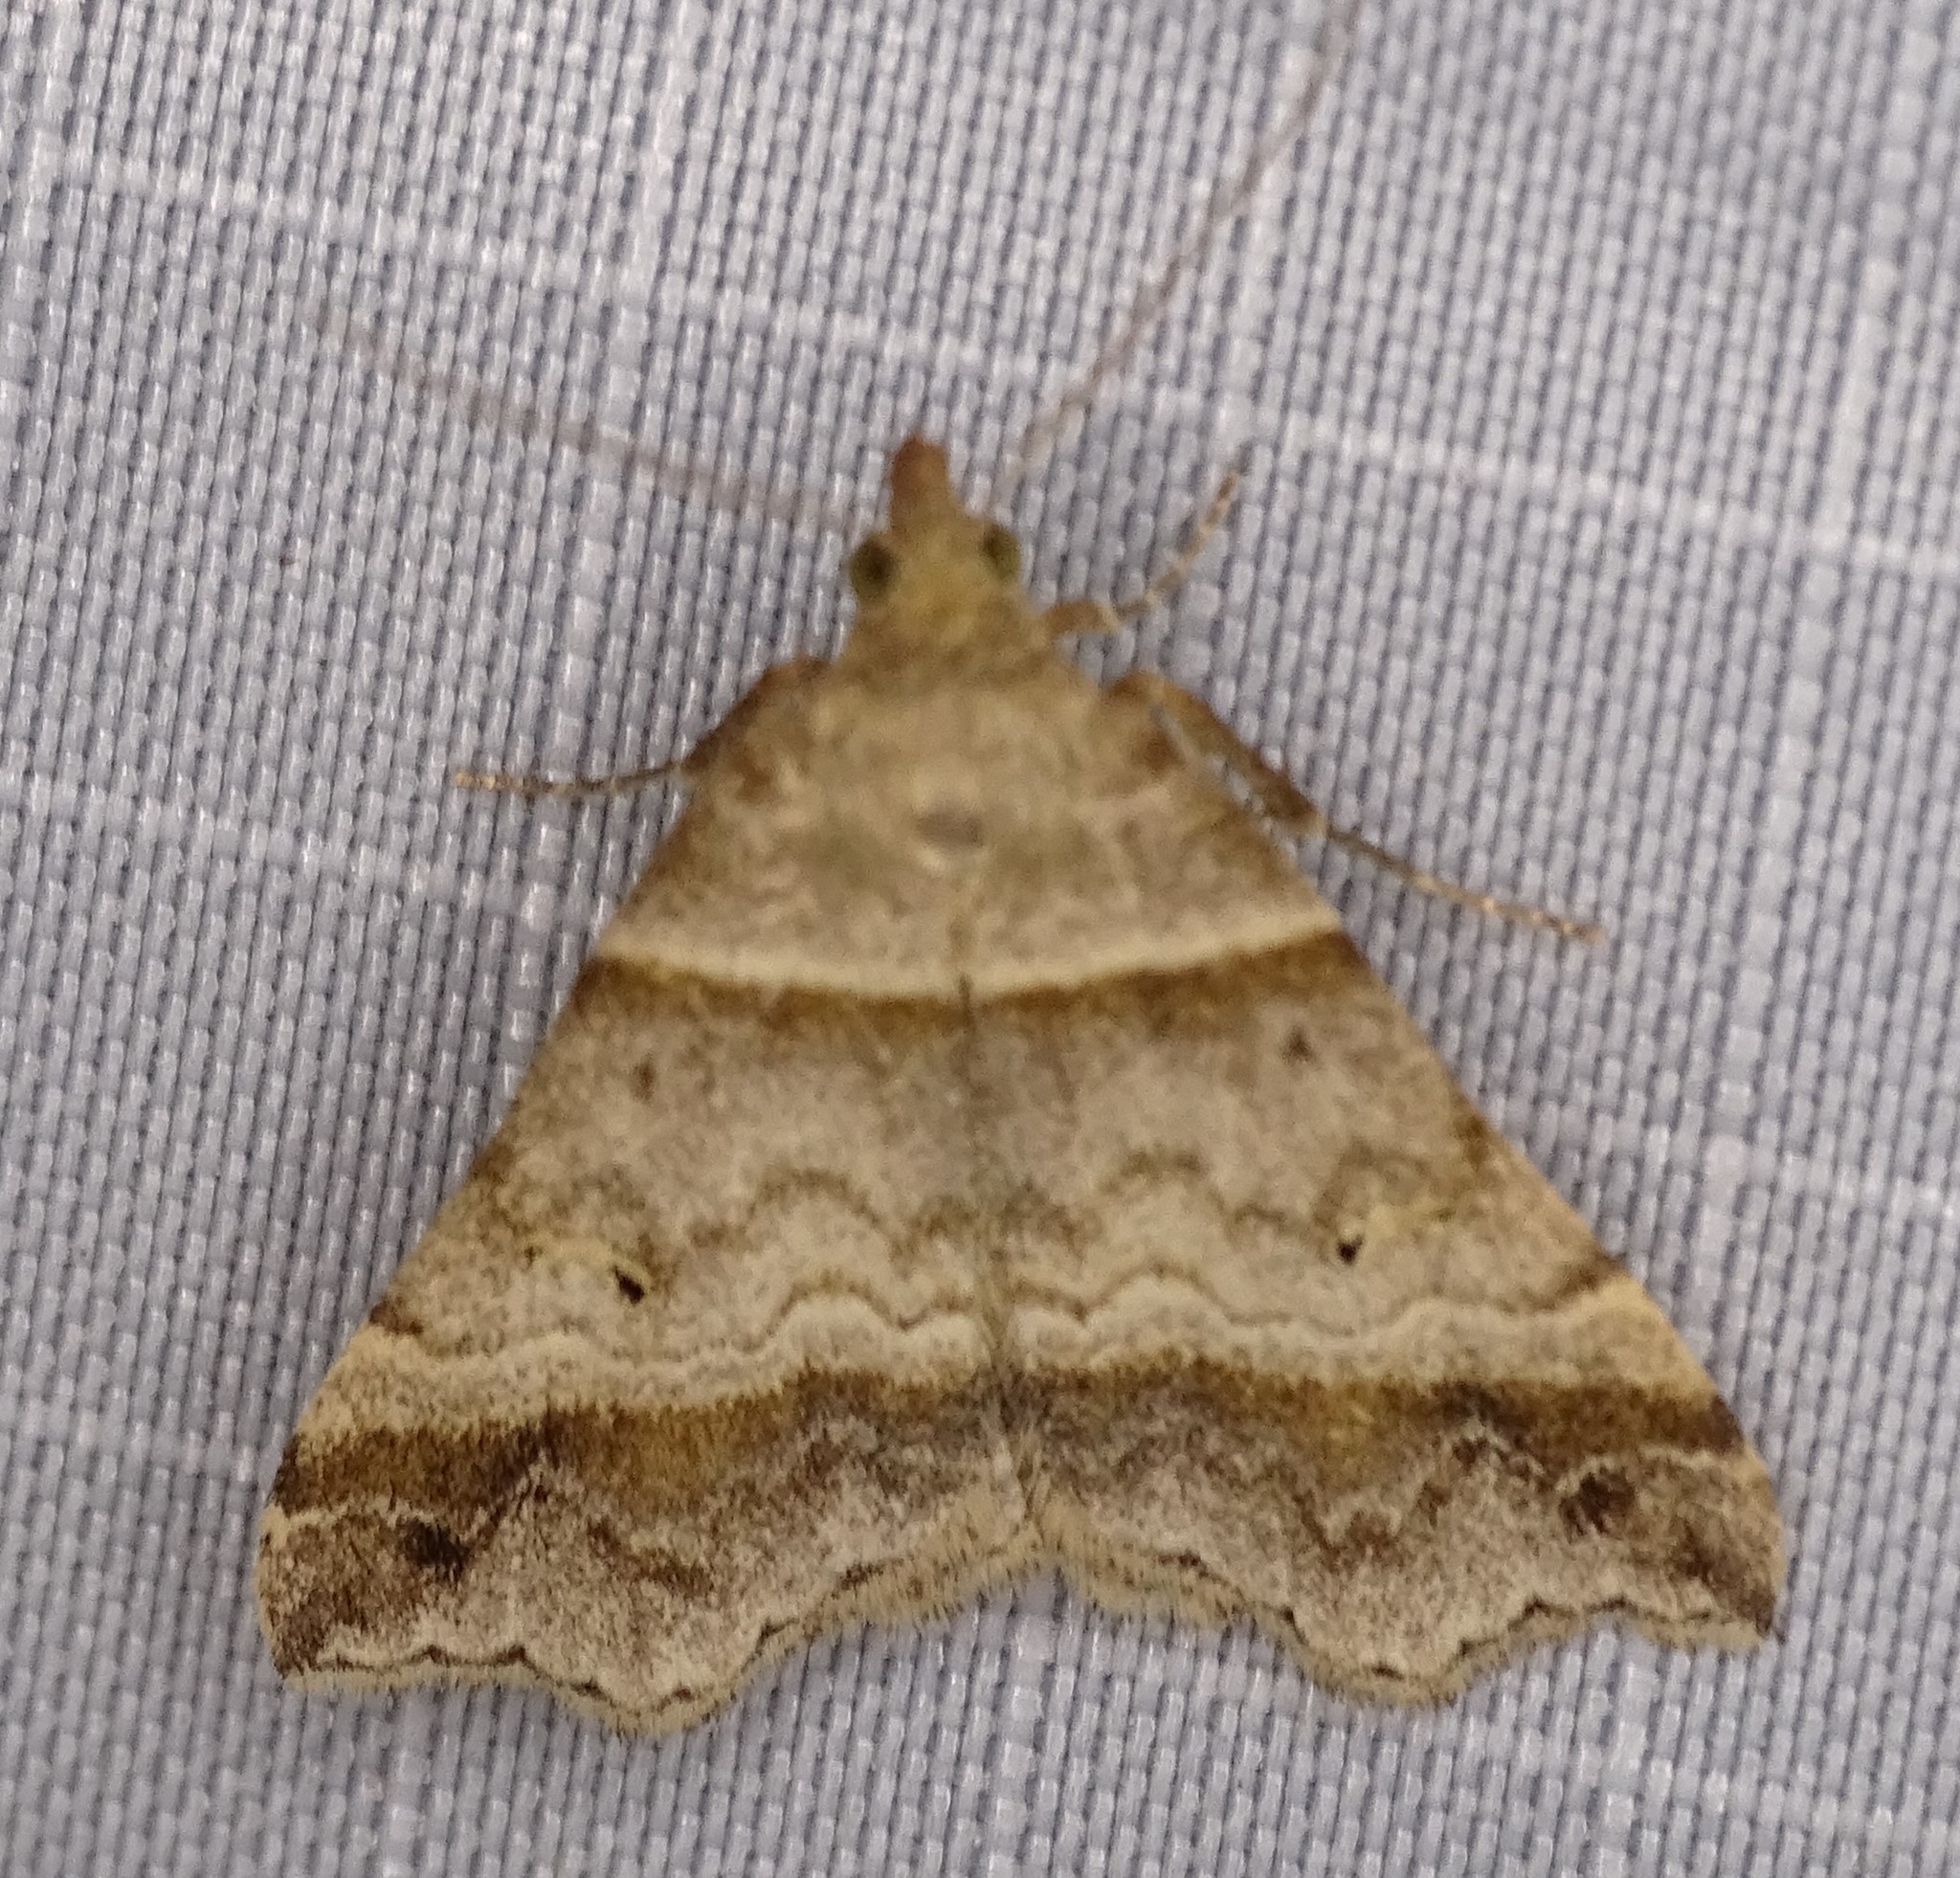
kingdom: Animalia
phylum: Arthropoda
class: Insecta
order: Lepidoptera
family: Erebidae
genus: Phaeolita
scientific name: Phaeolita pyramusalis
